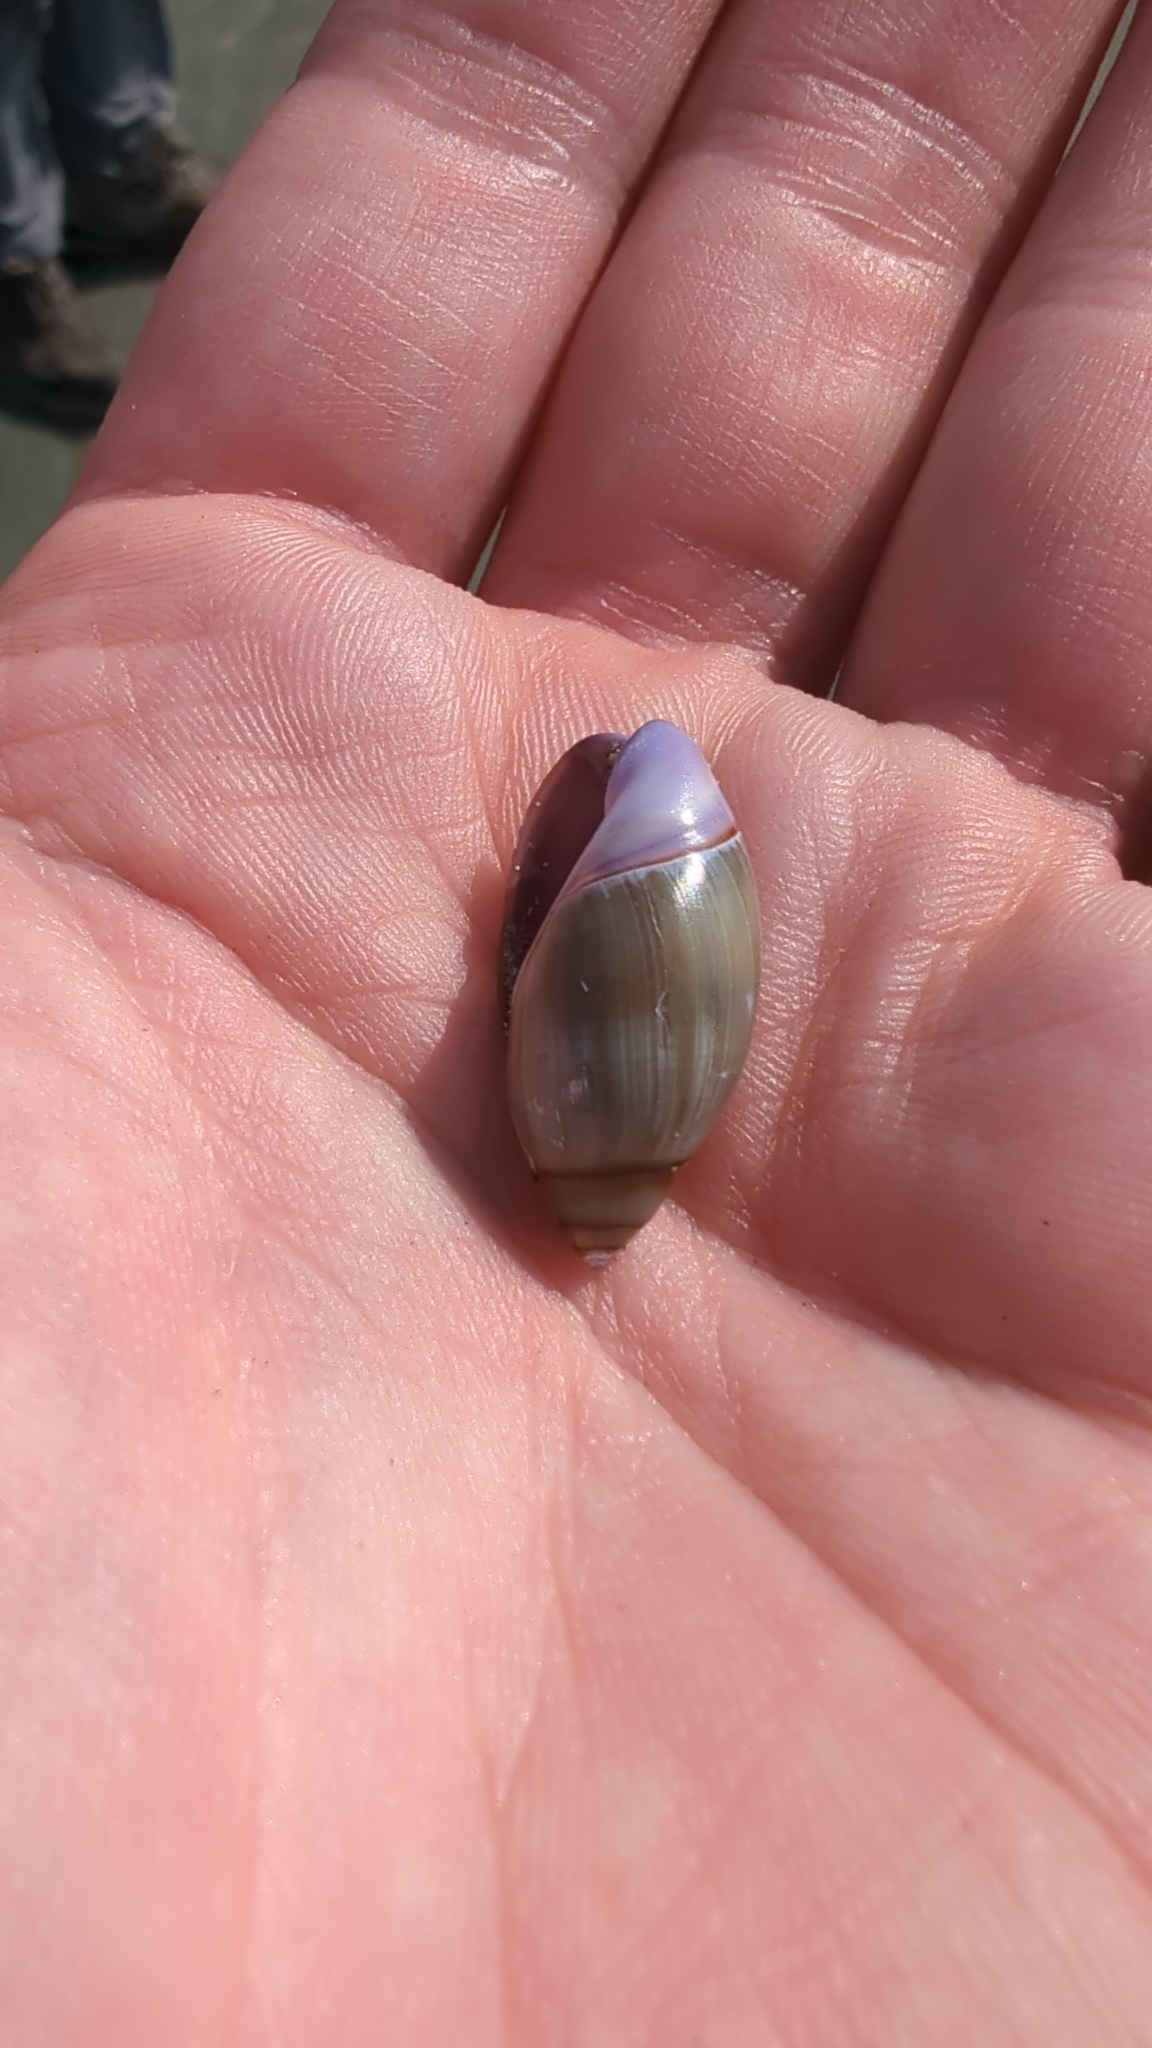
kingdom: Animalia
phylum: Mollusca
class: Gastropoda
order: Neogastropoda
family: Olividae
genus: Callianax
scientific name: Callianax biplicata
